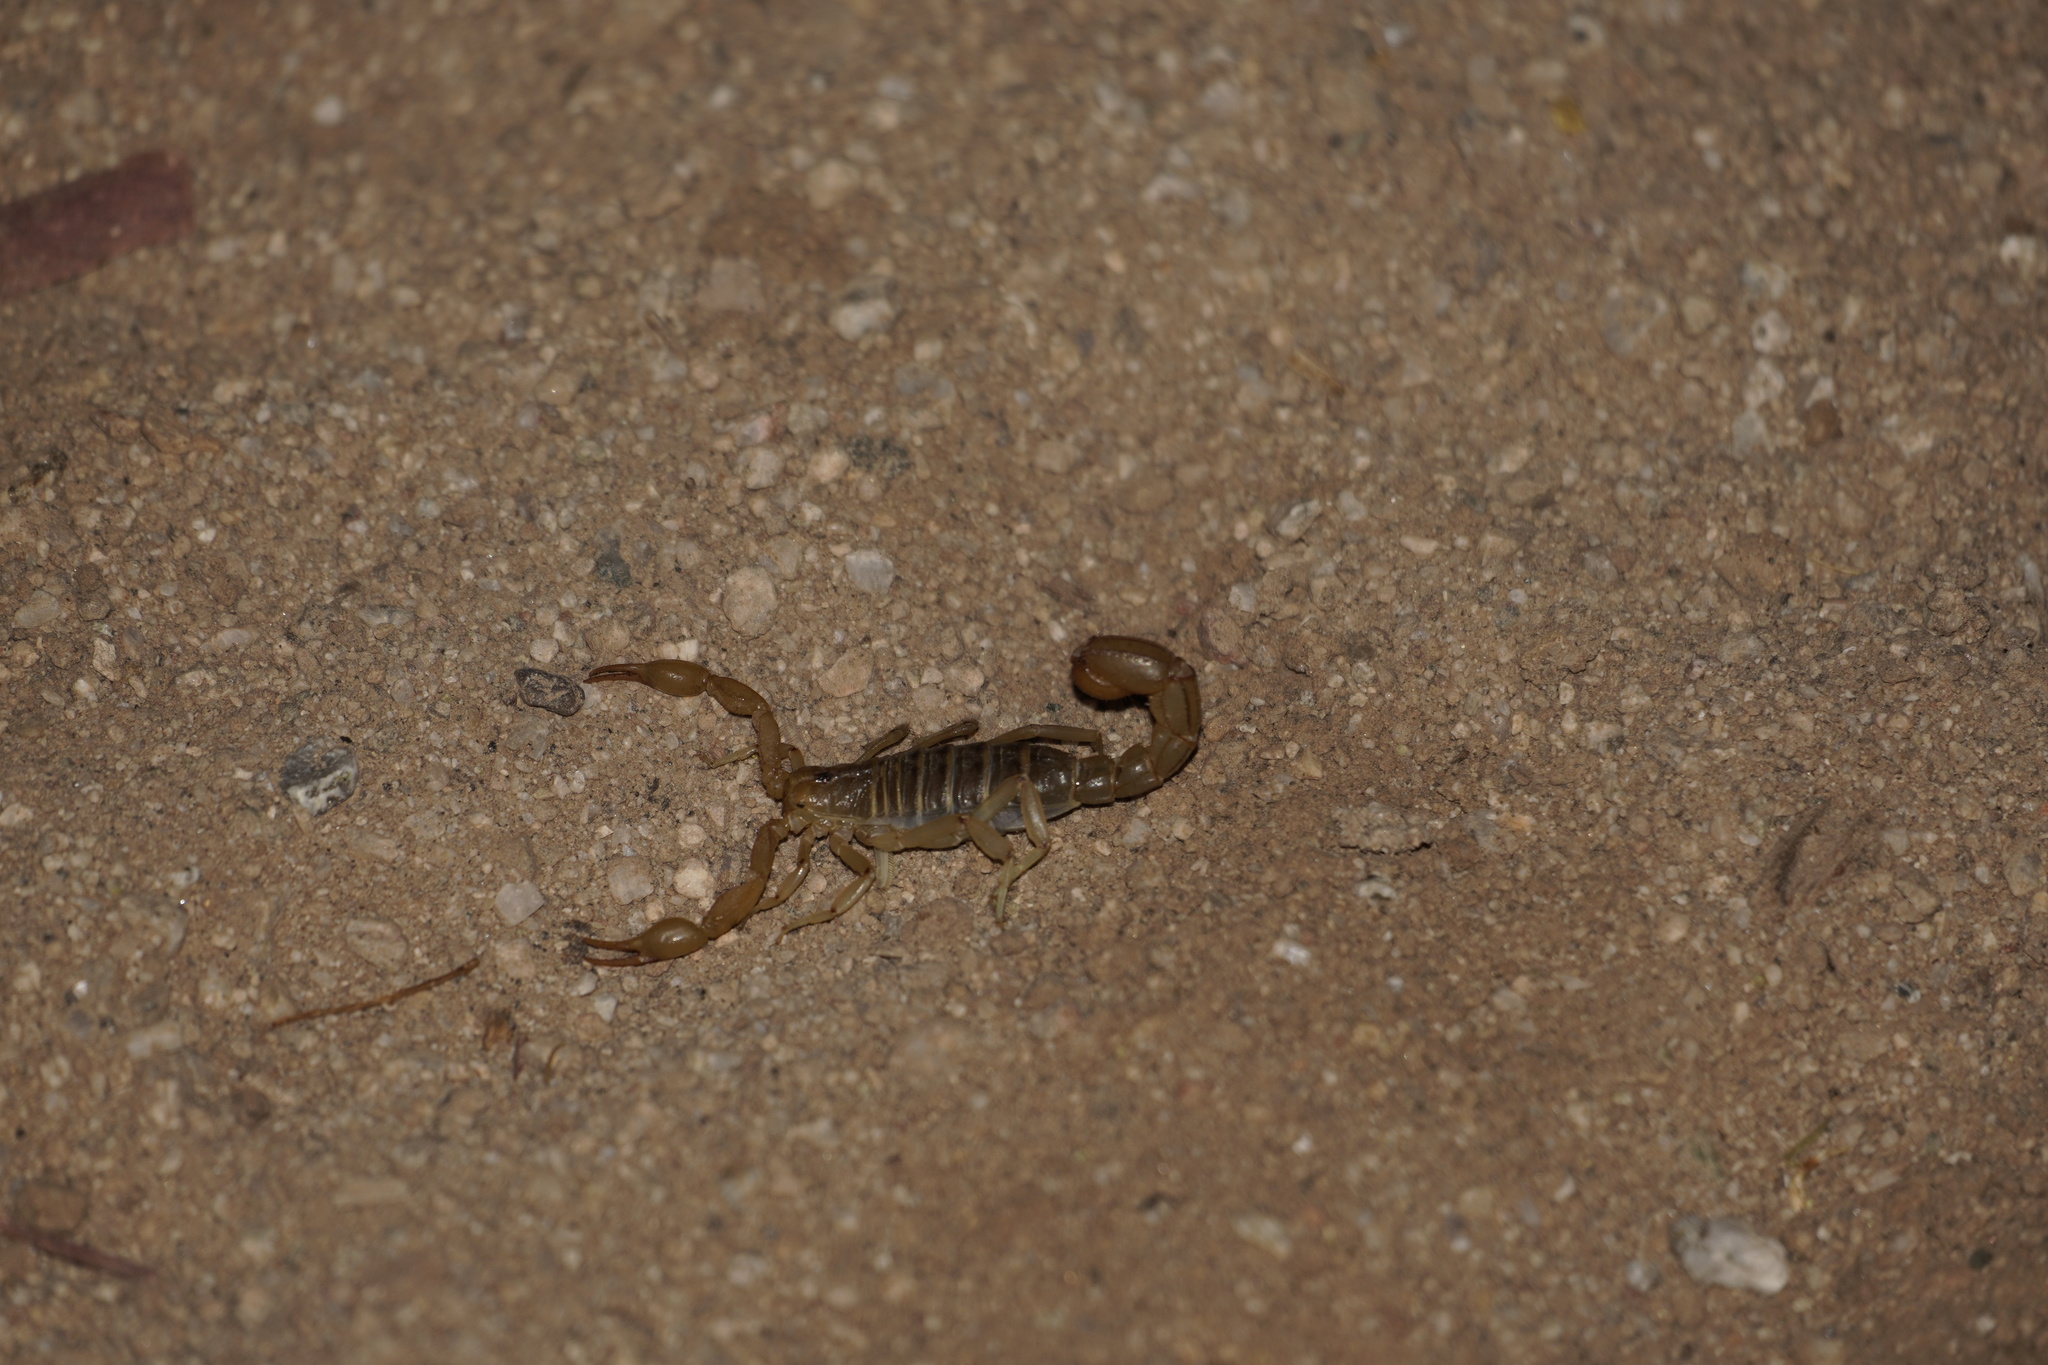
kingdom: Animalia
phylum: Arthropoda
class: Arachnida
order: Scorpiones
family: Vaejovidae
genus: Paravaejovis
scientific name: Paravaejovis spinigerus
